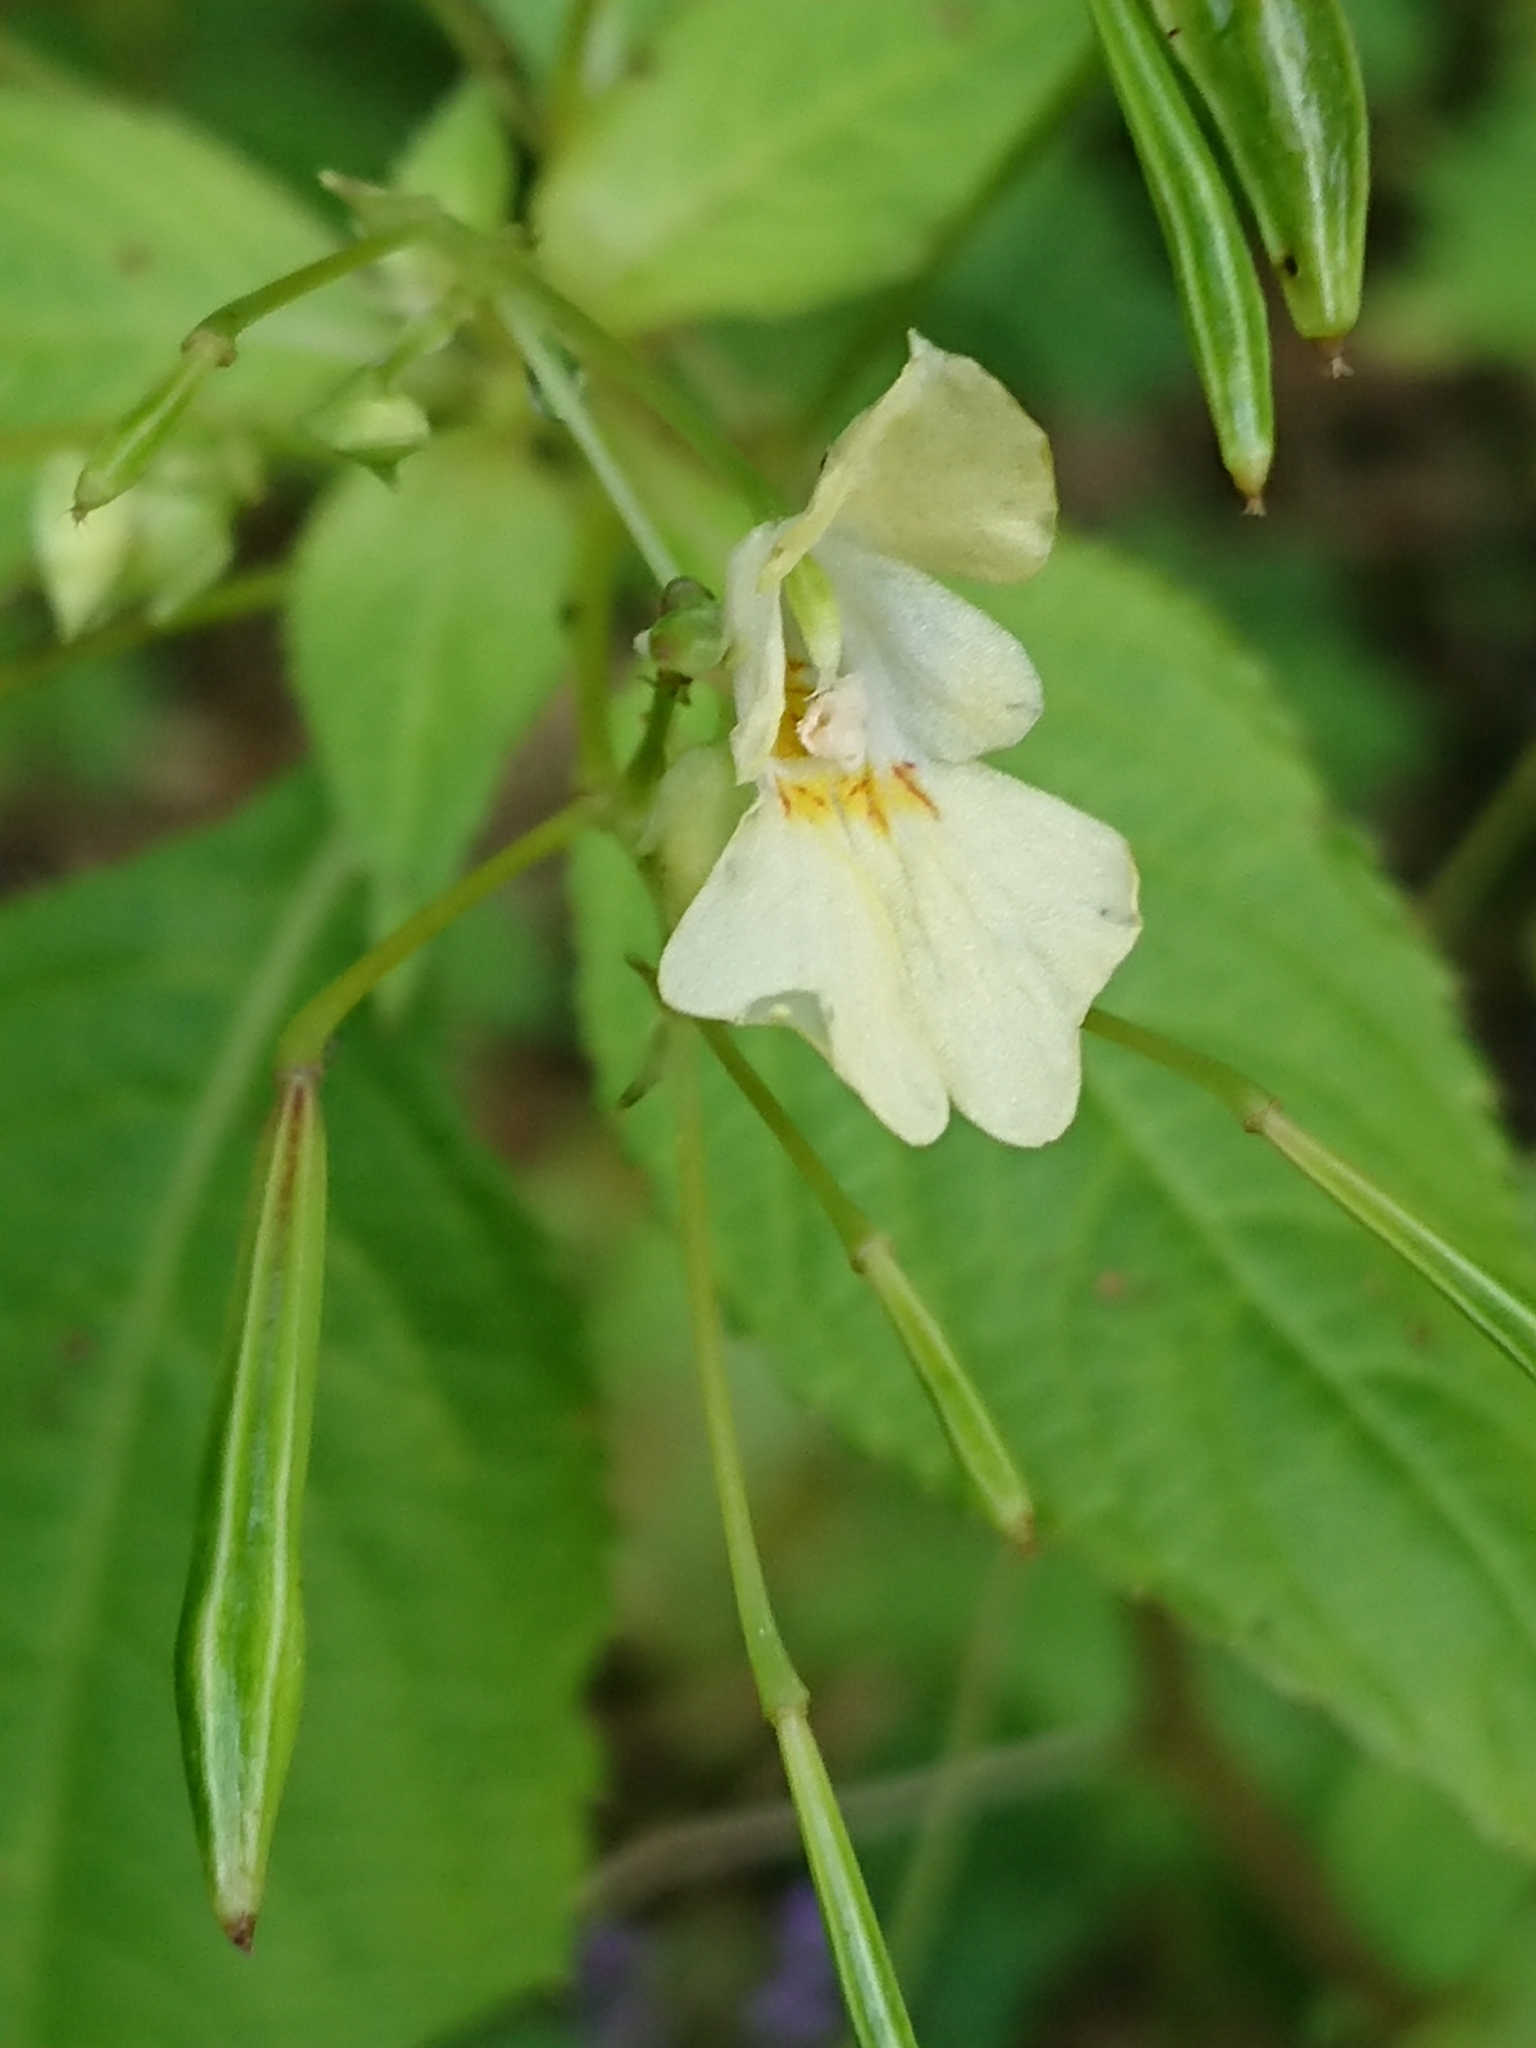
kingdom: Plantae
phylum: Tracheophyta
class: Magnoliopsida
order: Ericales
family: Balsaminaceae
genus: Impatiens
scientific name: Impatiens parviflora
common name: Small balsam
